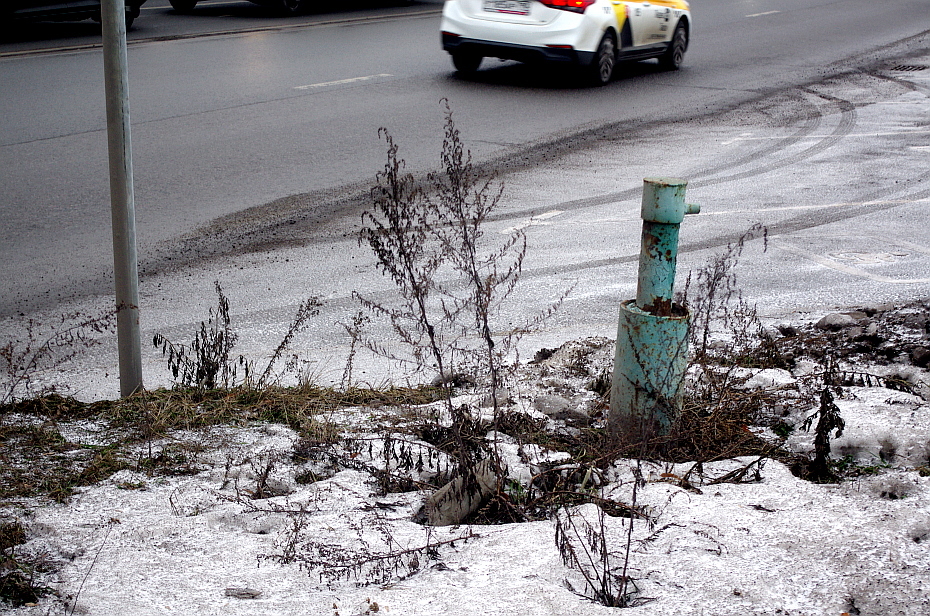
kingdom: Plantae
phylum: Tracheophyta
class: Magnoliopsida
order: Asterales
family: Asteraceae
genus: Artemisia
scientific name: Artemisia vulgaris
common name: Mugwort
